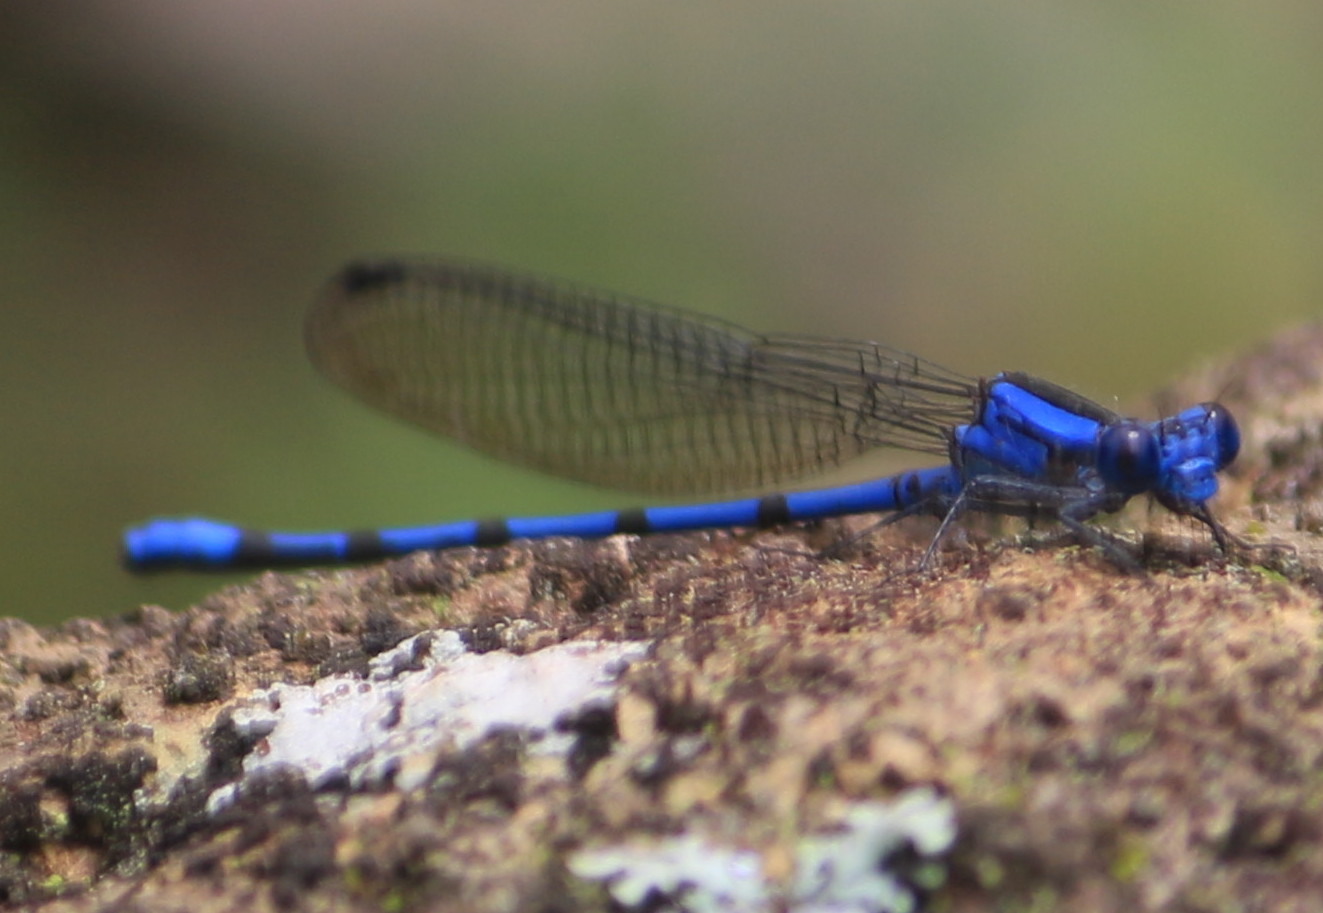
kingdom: Animalia
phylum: Arthropoda
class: Insecta
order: Odonata
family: Coenagrionidae
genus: Argia
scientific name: Argia chelata
